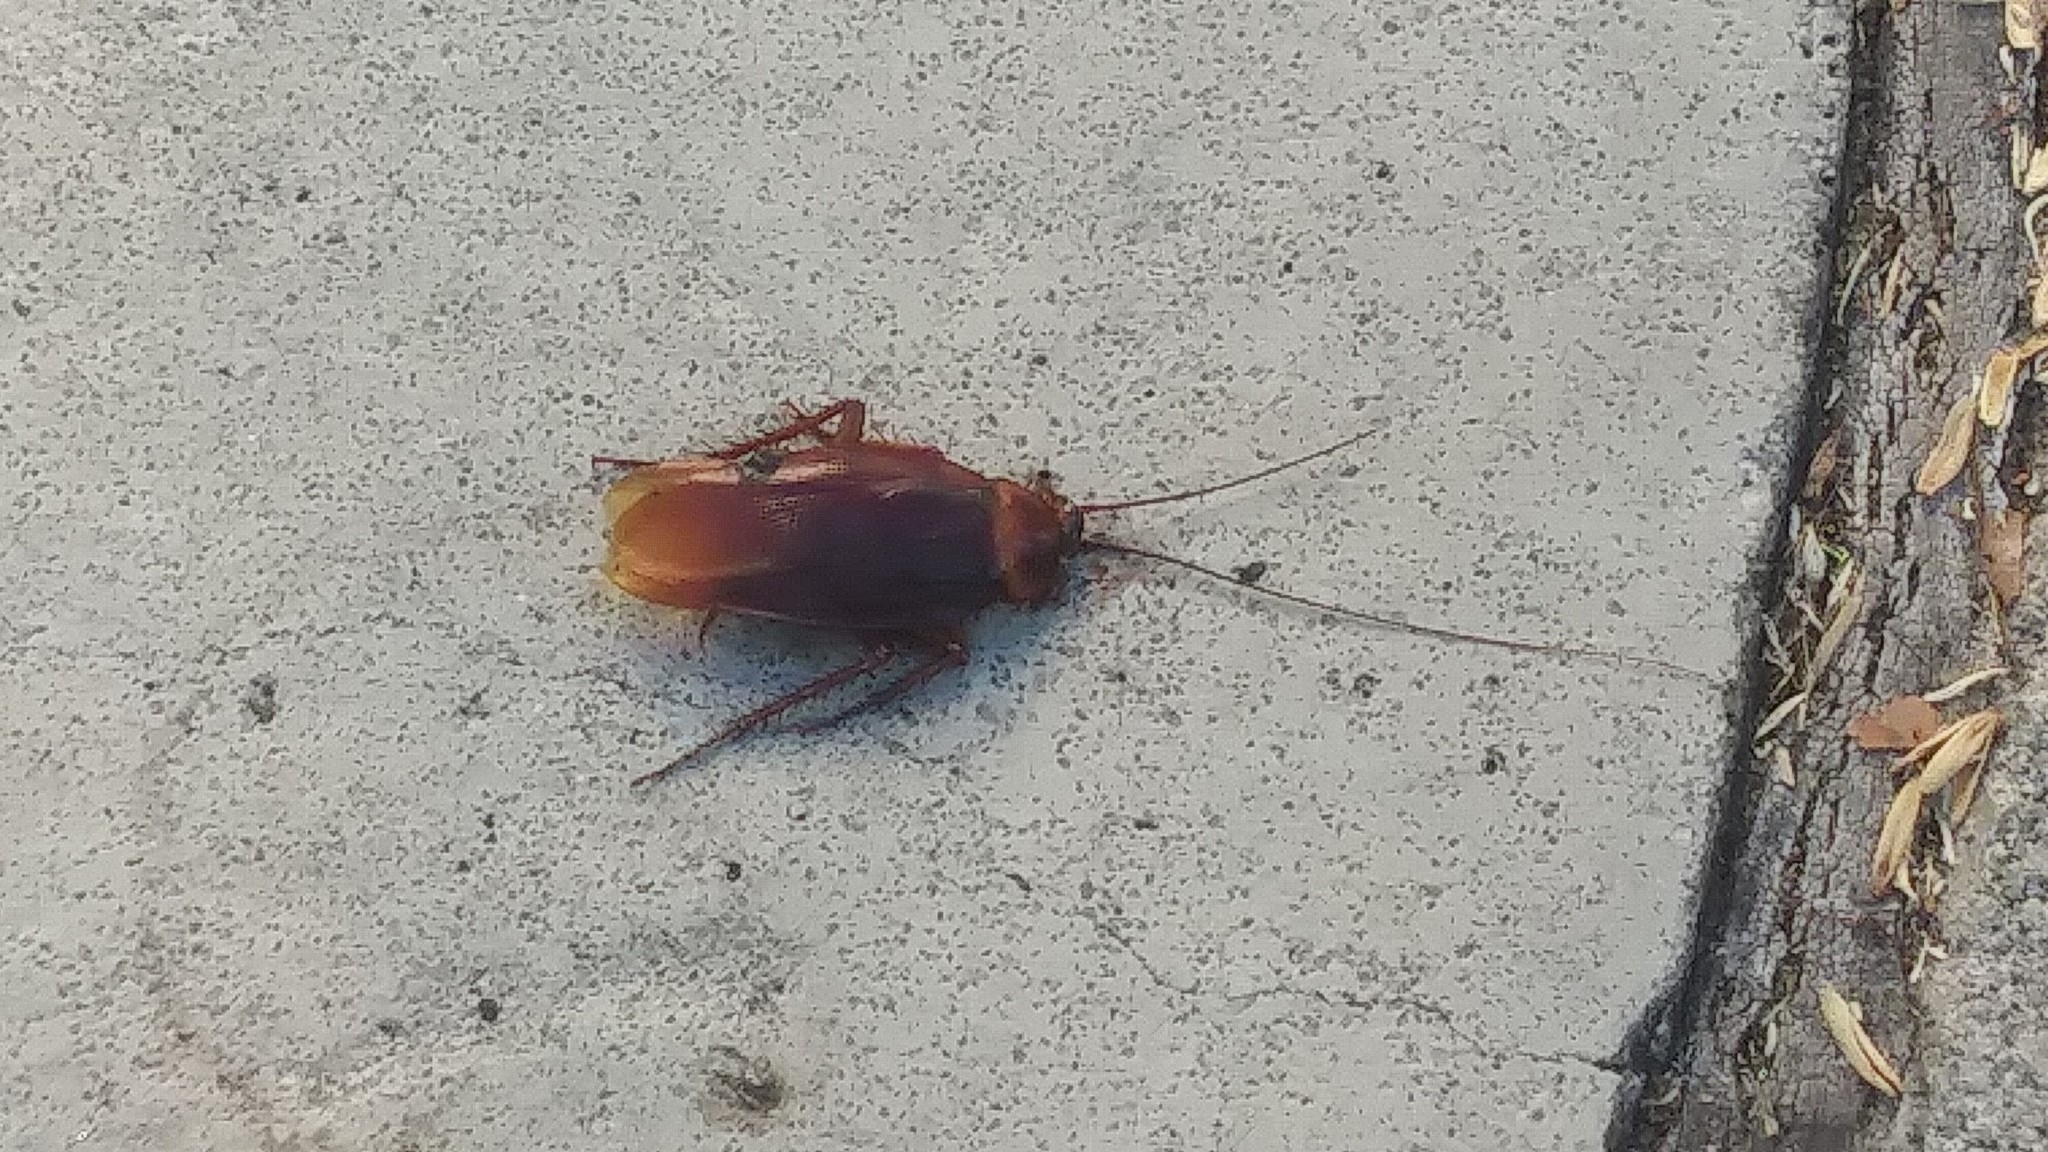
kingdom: Animalia
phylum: Arthropoda
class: Insecta
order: Blattodea
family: Blattidae
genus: Periplaneta
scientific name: Periplaneta americana
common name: American cockroach
